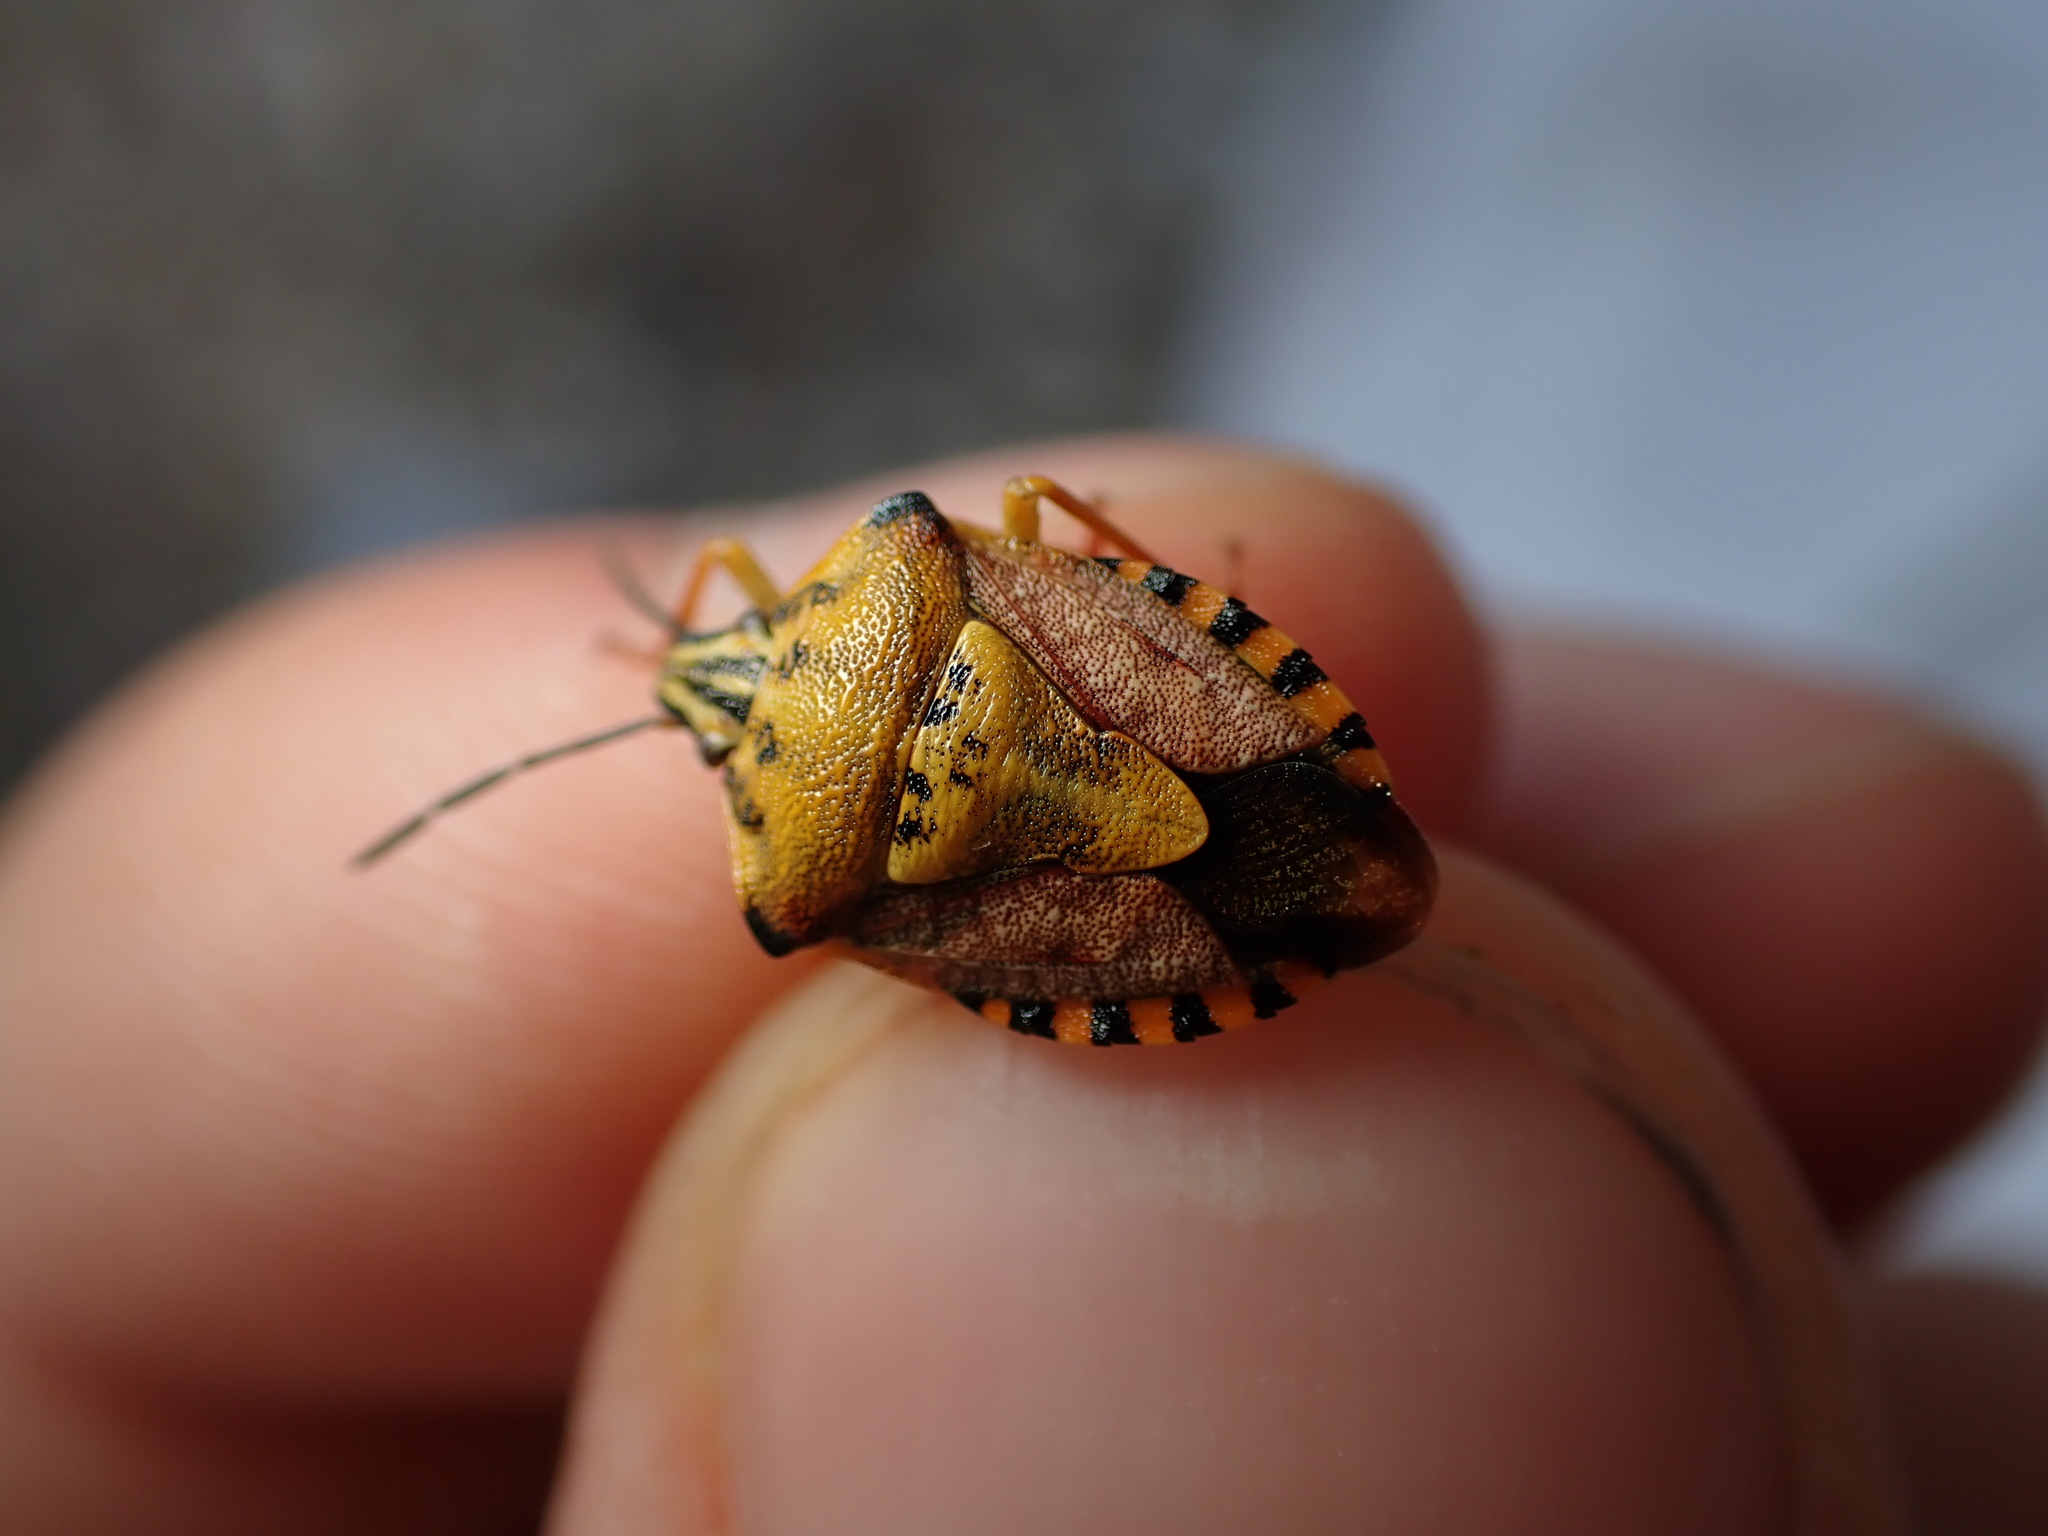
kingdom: Animalia
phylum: Arthropoda
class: Insecta
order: Hemiptera
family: Pentatomidae
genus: Carpocoris
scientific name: Carpocoris purpureipennis
